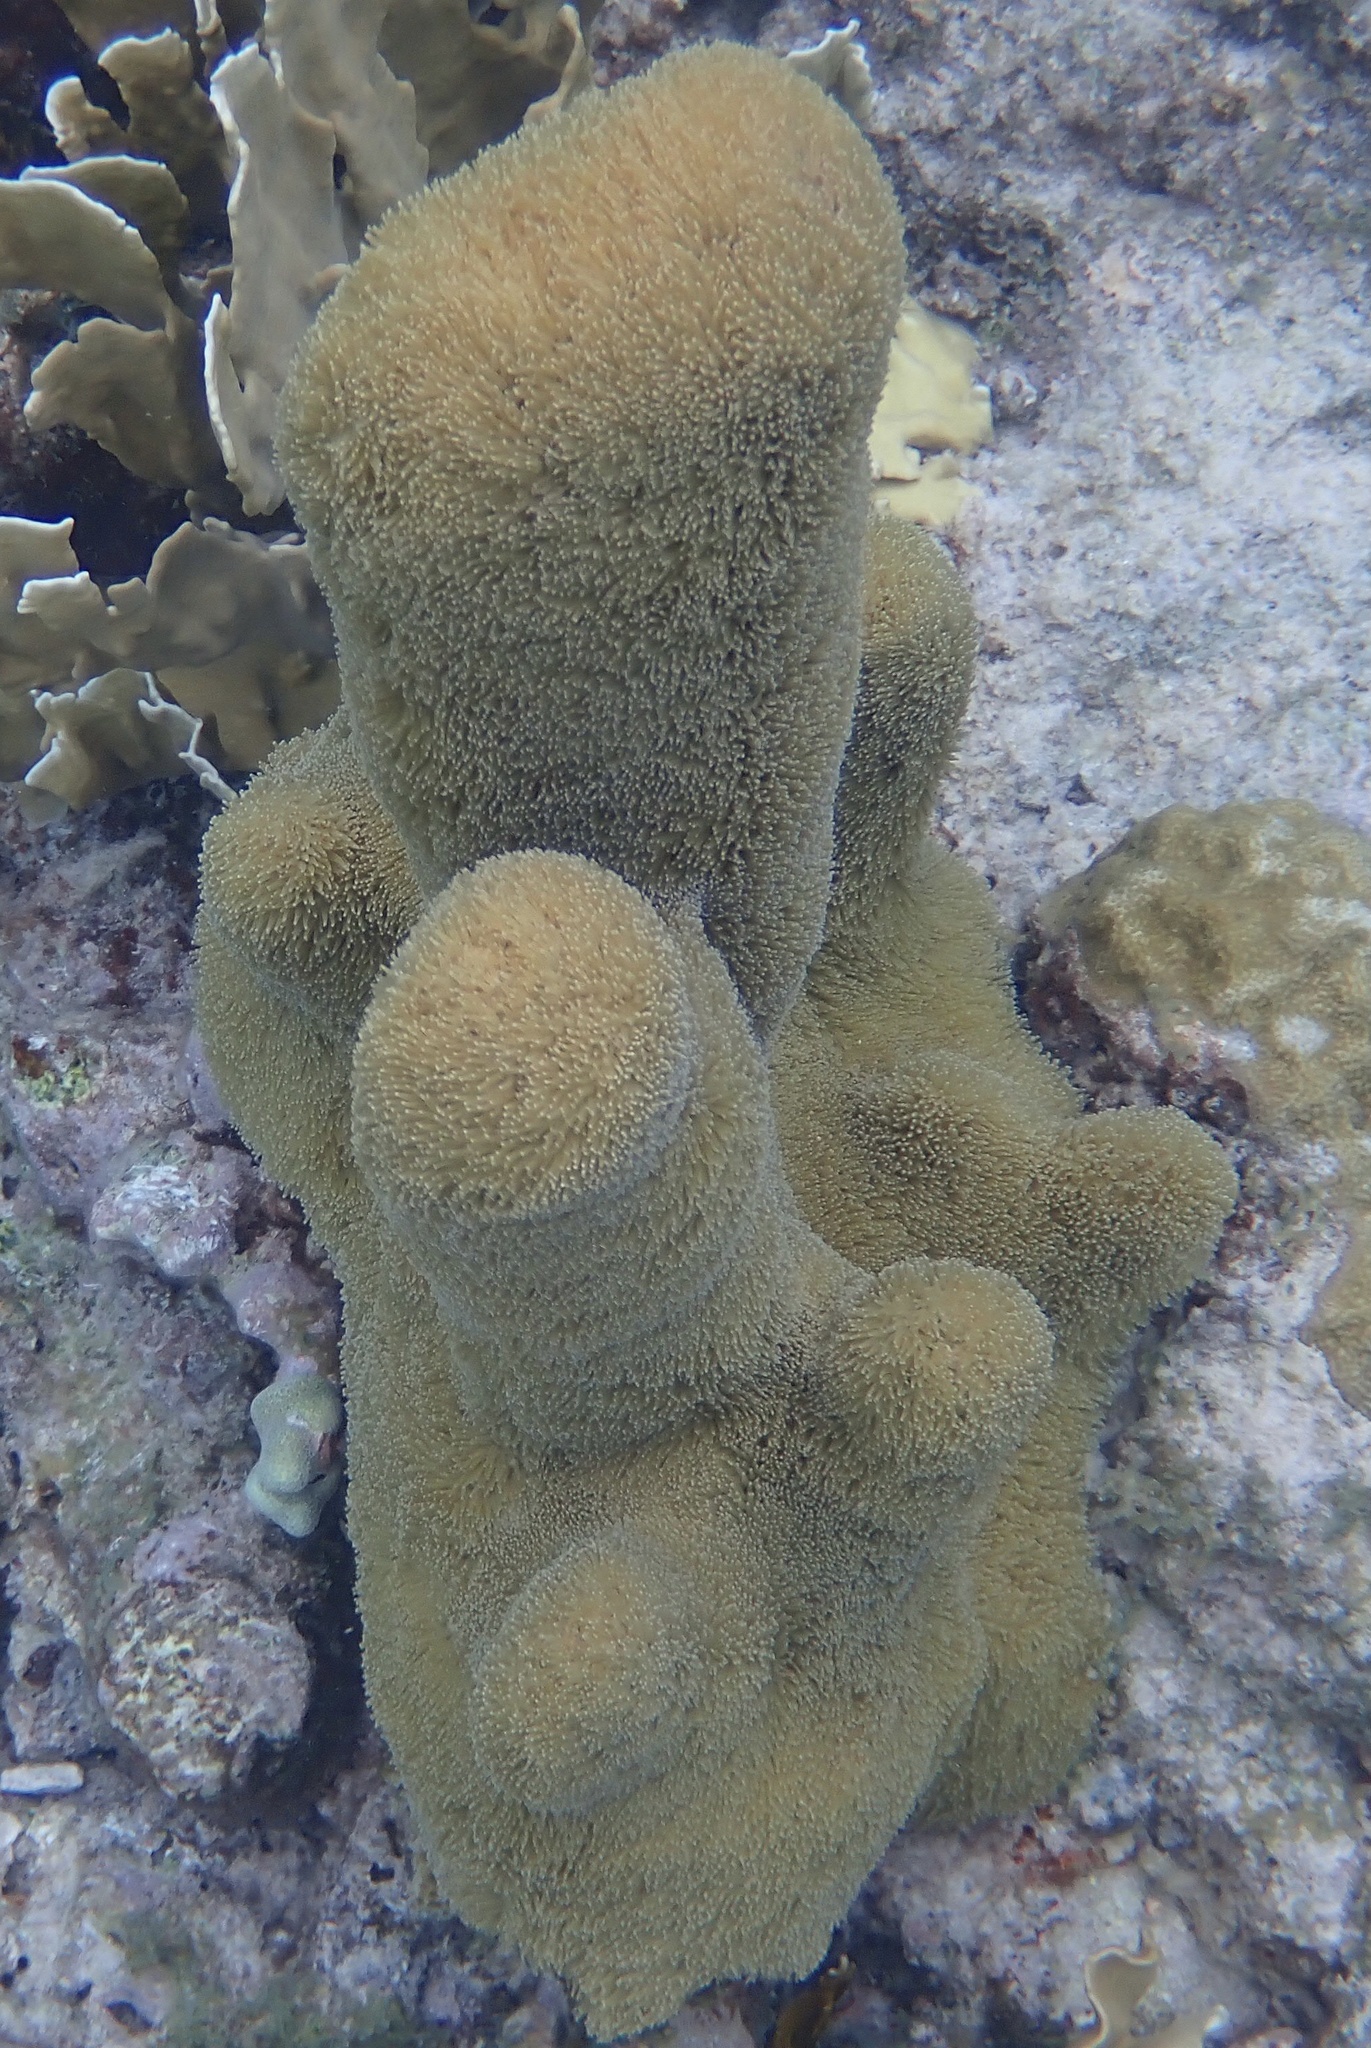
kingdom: Animalia
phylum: Cnidaria
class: Anthozoa
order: Scleractinia
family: Meandrinidae
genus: Dendrogyra
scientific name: Dendrogyra cylindrus
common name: Pillar coral
